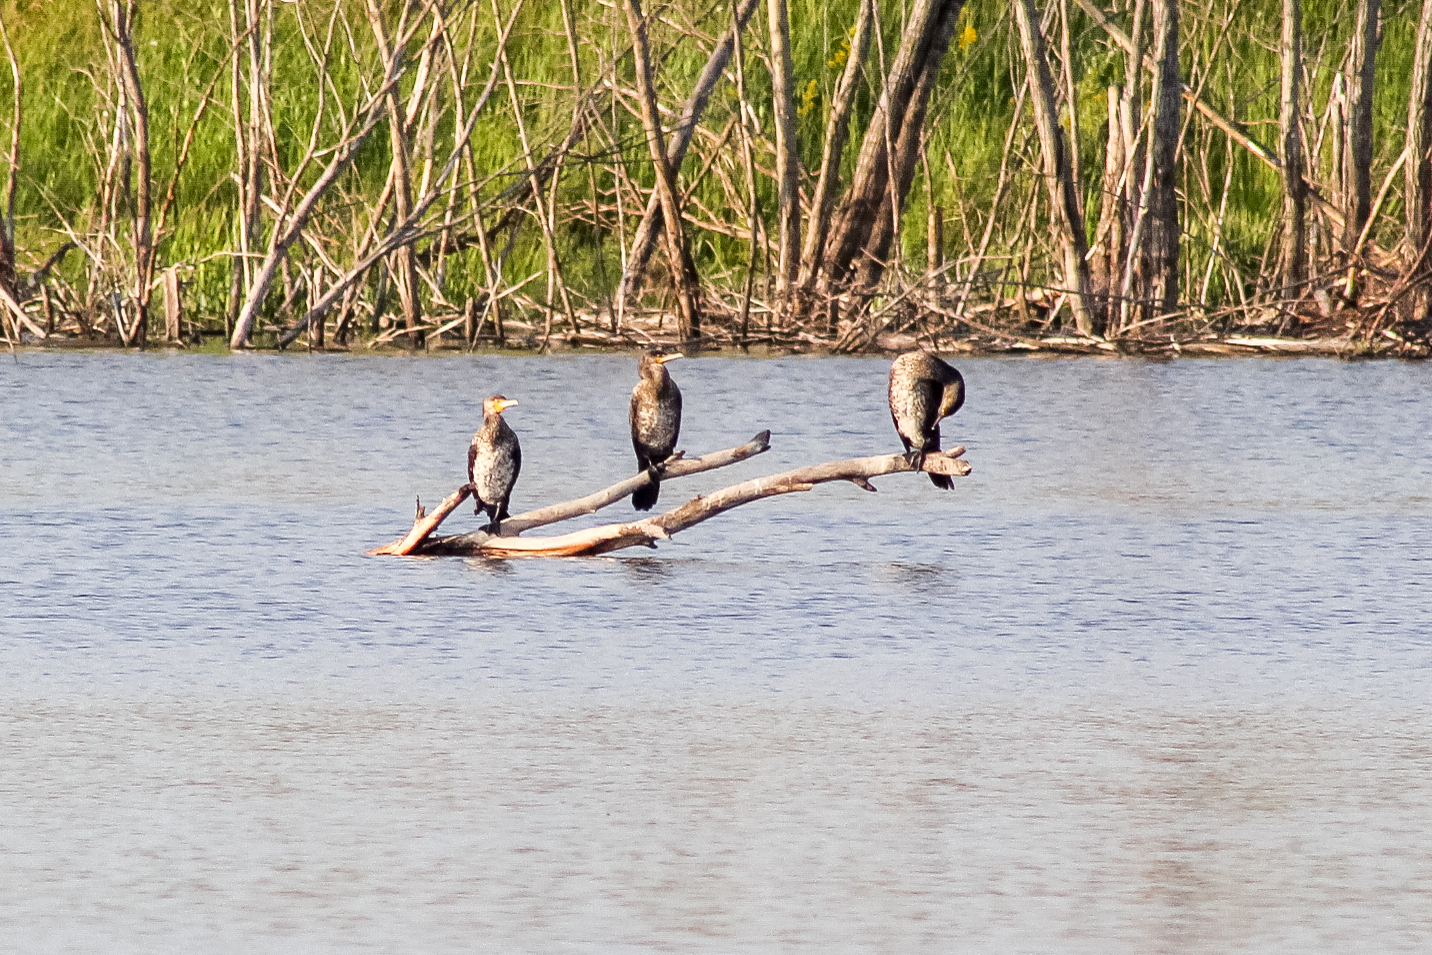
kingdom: Animalia
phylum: Chordata
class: Aves
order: Suliformes
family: Phalacrocoracidae
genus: Phalacrocorax
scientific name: Phalacrocorax carbo
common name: Great cormorant
